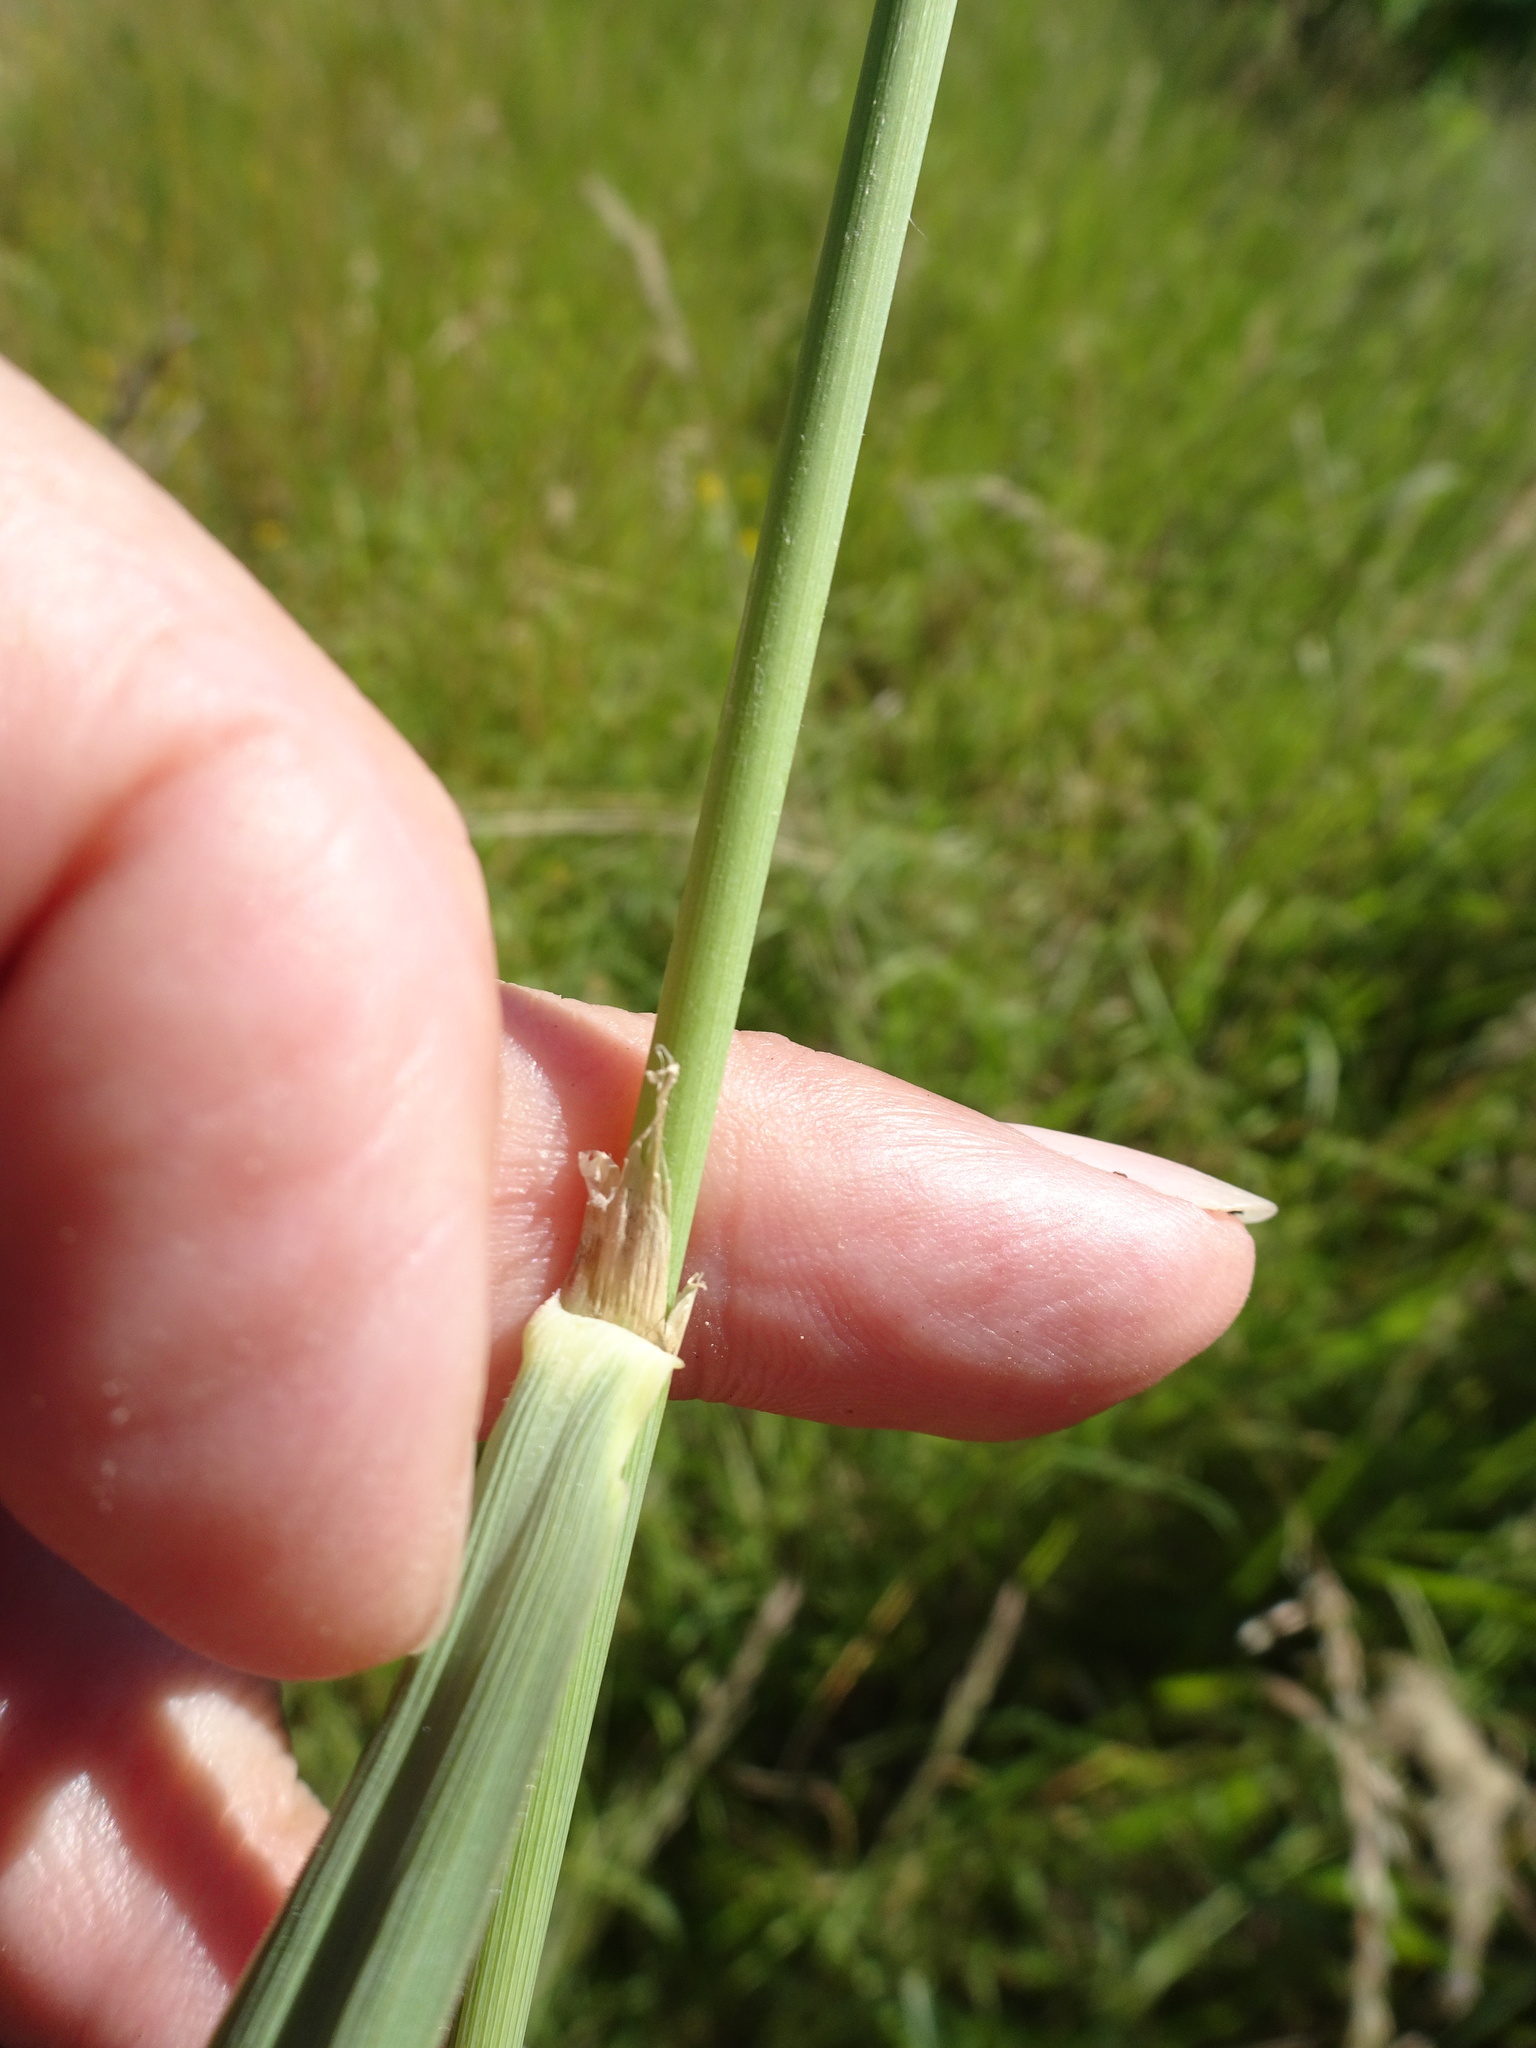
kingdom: Plantae
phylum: Tracheophyta
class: Liliopsida
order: Poales
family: Poaceae
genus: Calamagrostis
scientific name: Calamagrostis epigejos
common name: Wood small-reed
